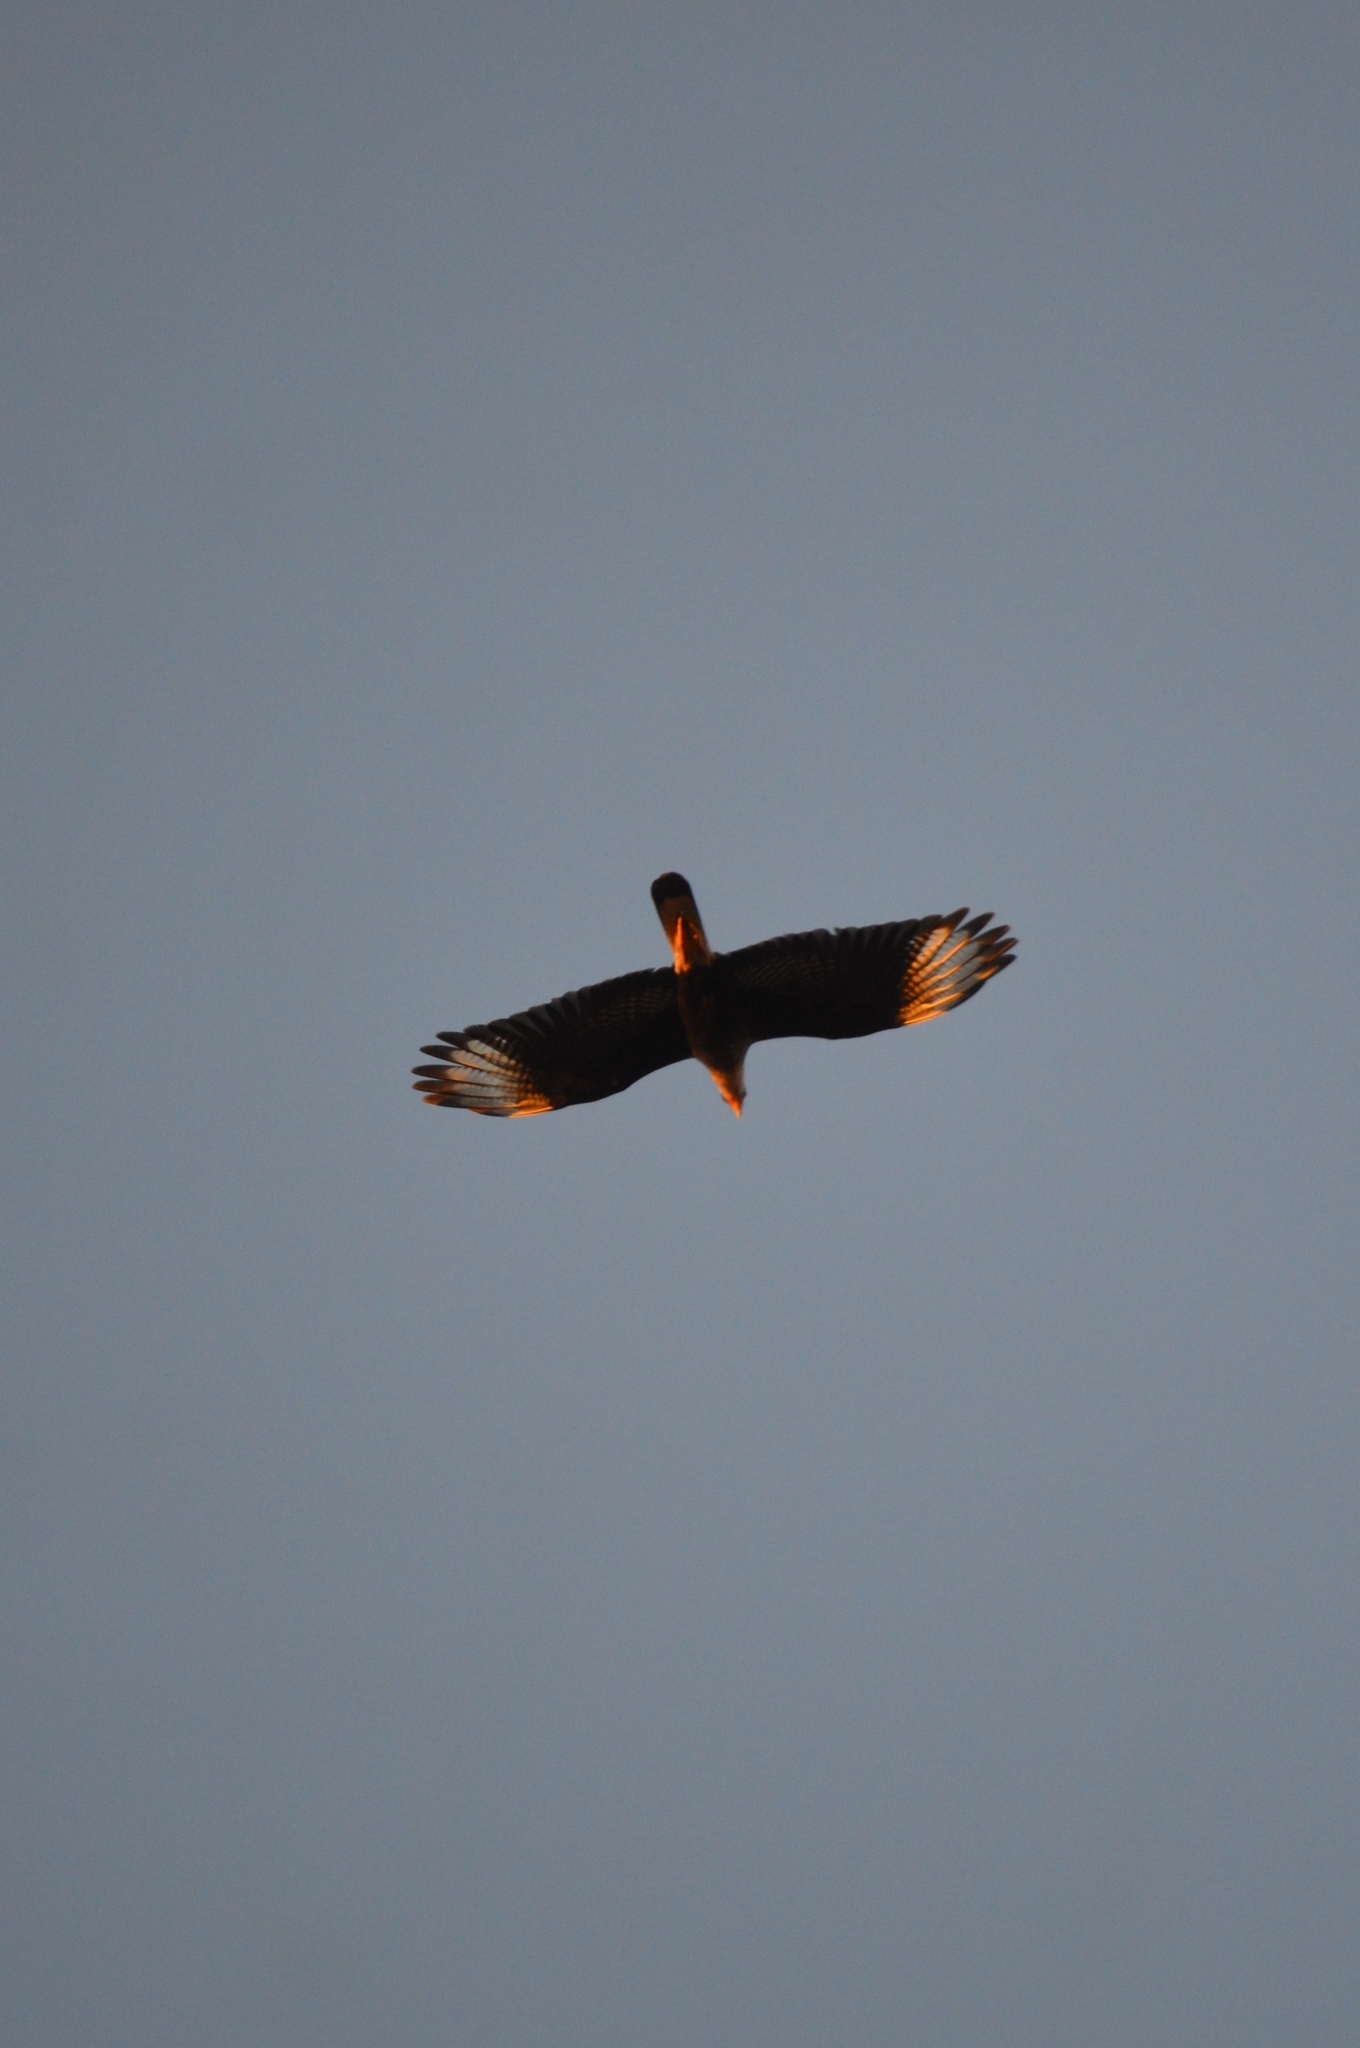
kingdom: Animalia
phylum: Chordata
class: Aves
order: Falconiformes
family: Falconidae
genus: Caracara
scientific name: Caracara plancus
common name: Southern caracara
